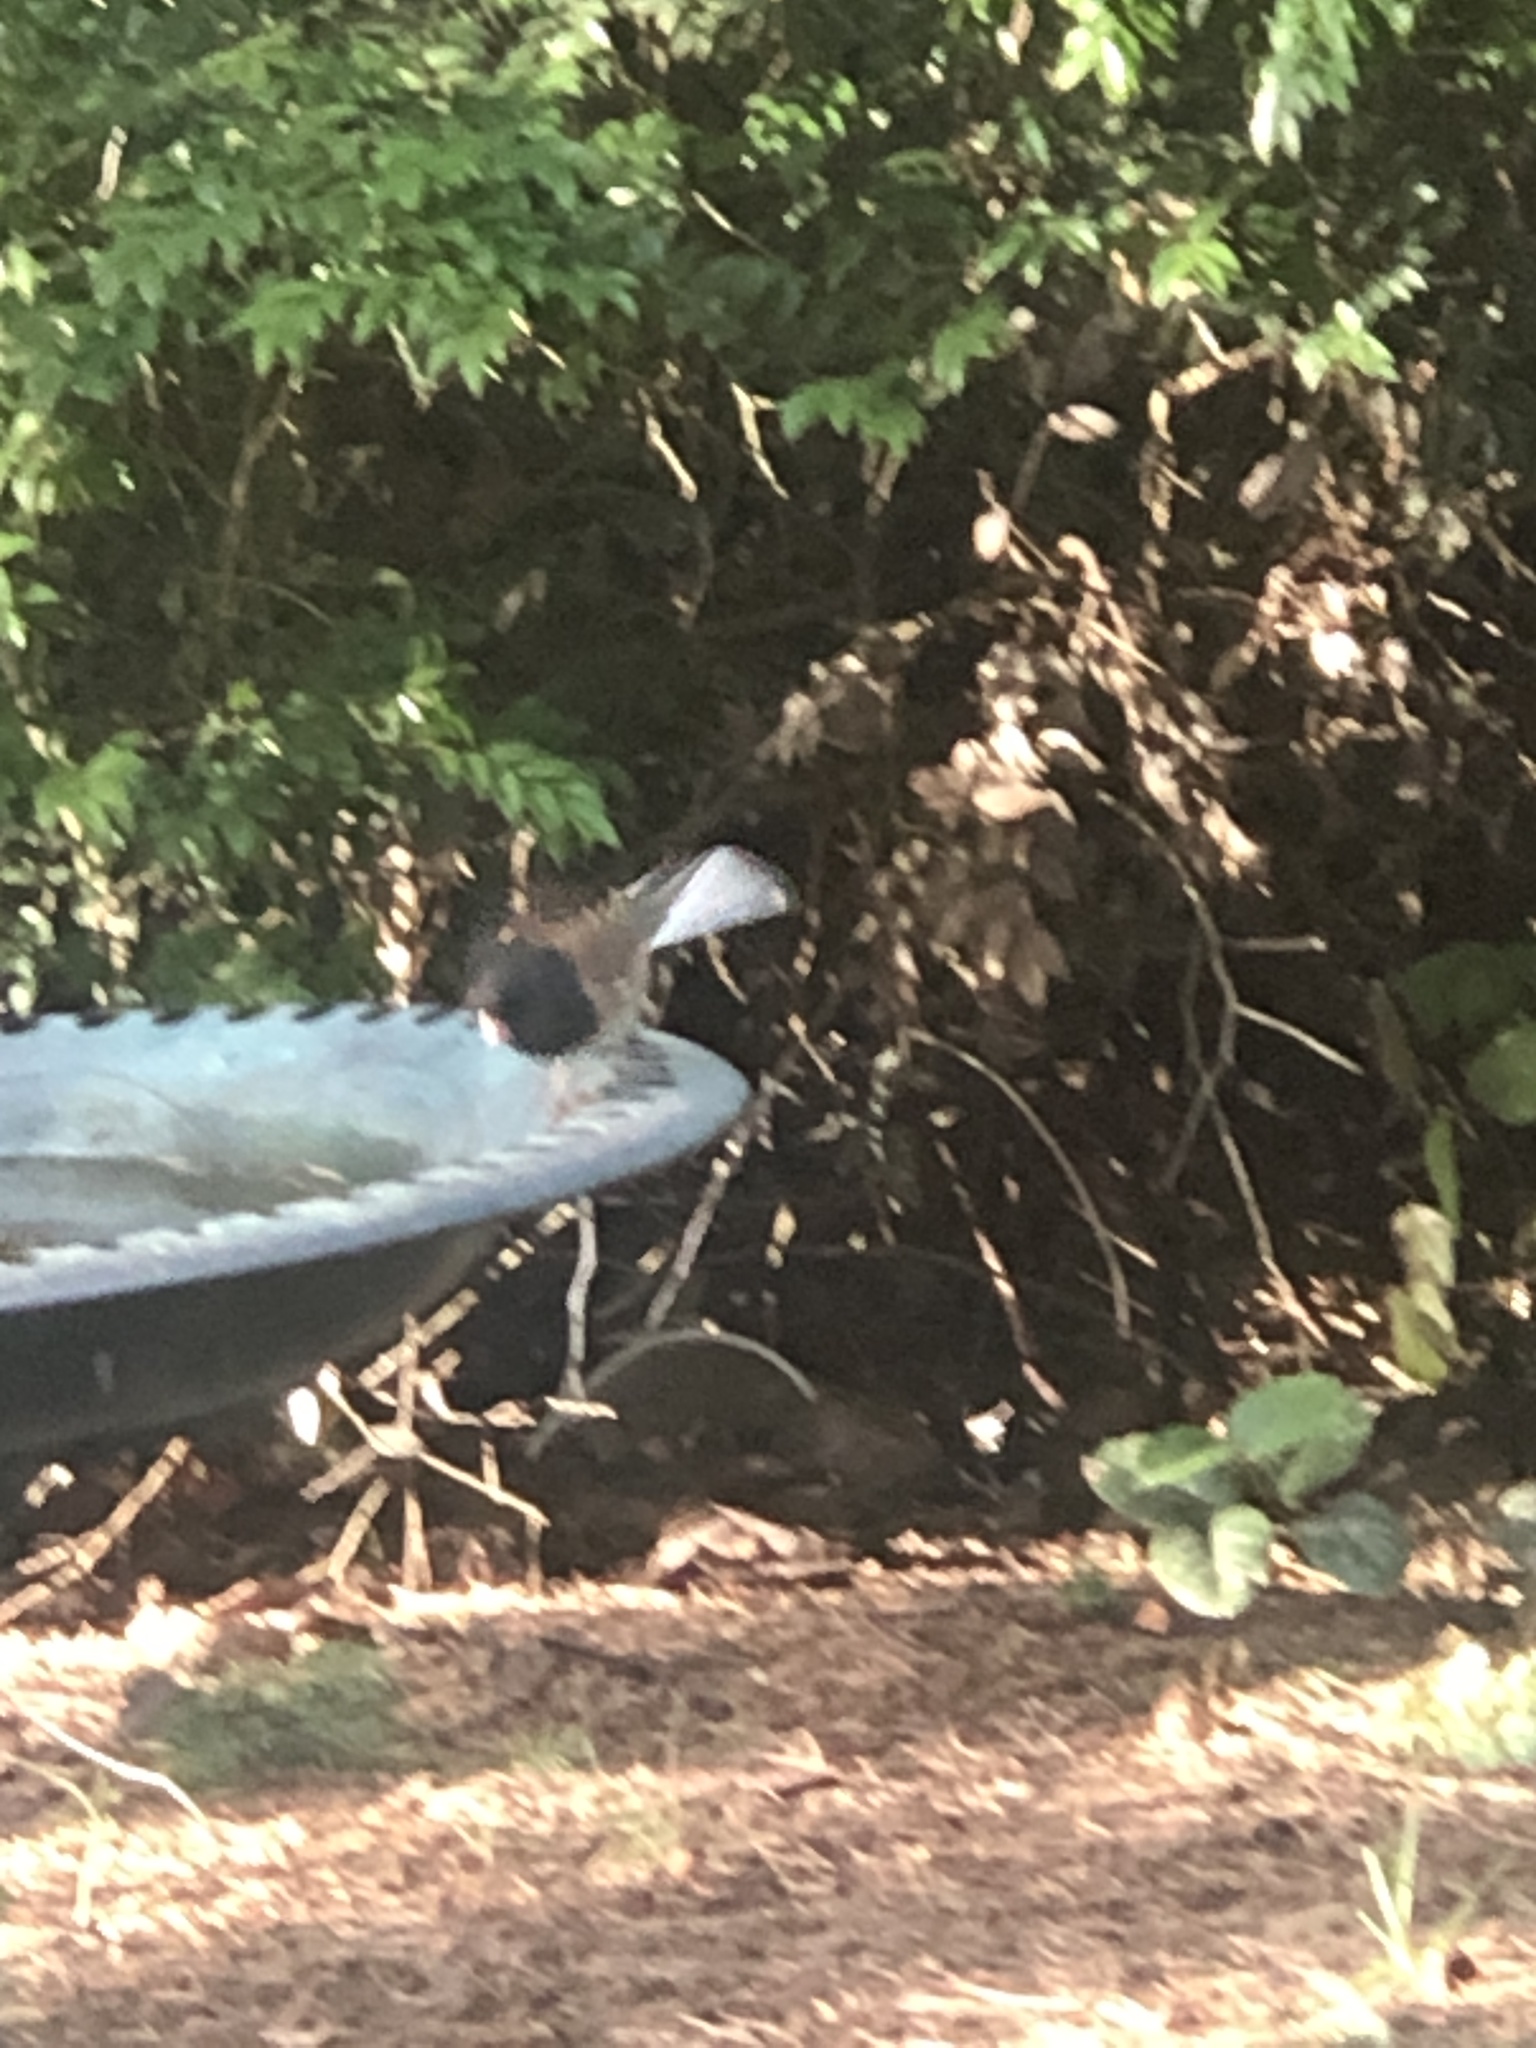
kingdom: Animalia
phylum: Chordata
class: Aves
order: Passeriformes
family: Passerellidae
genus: Junco
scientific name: Junco hyemalis
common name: Dark-eyed junco
